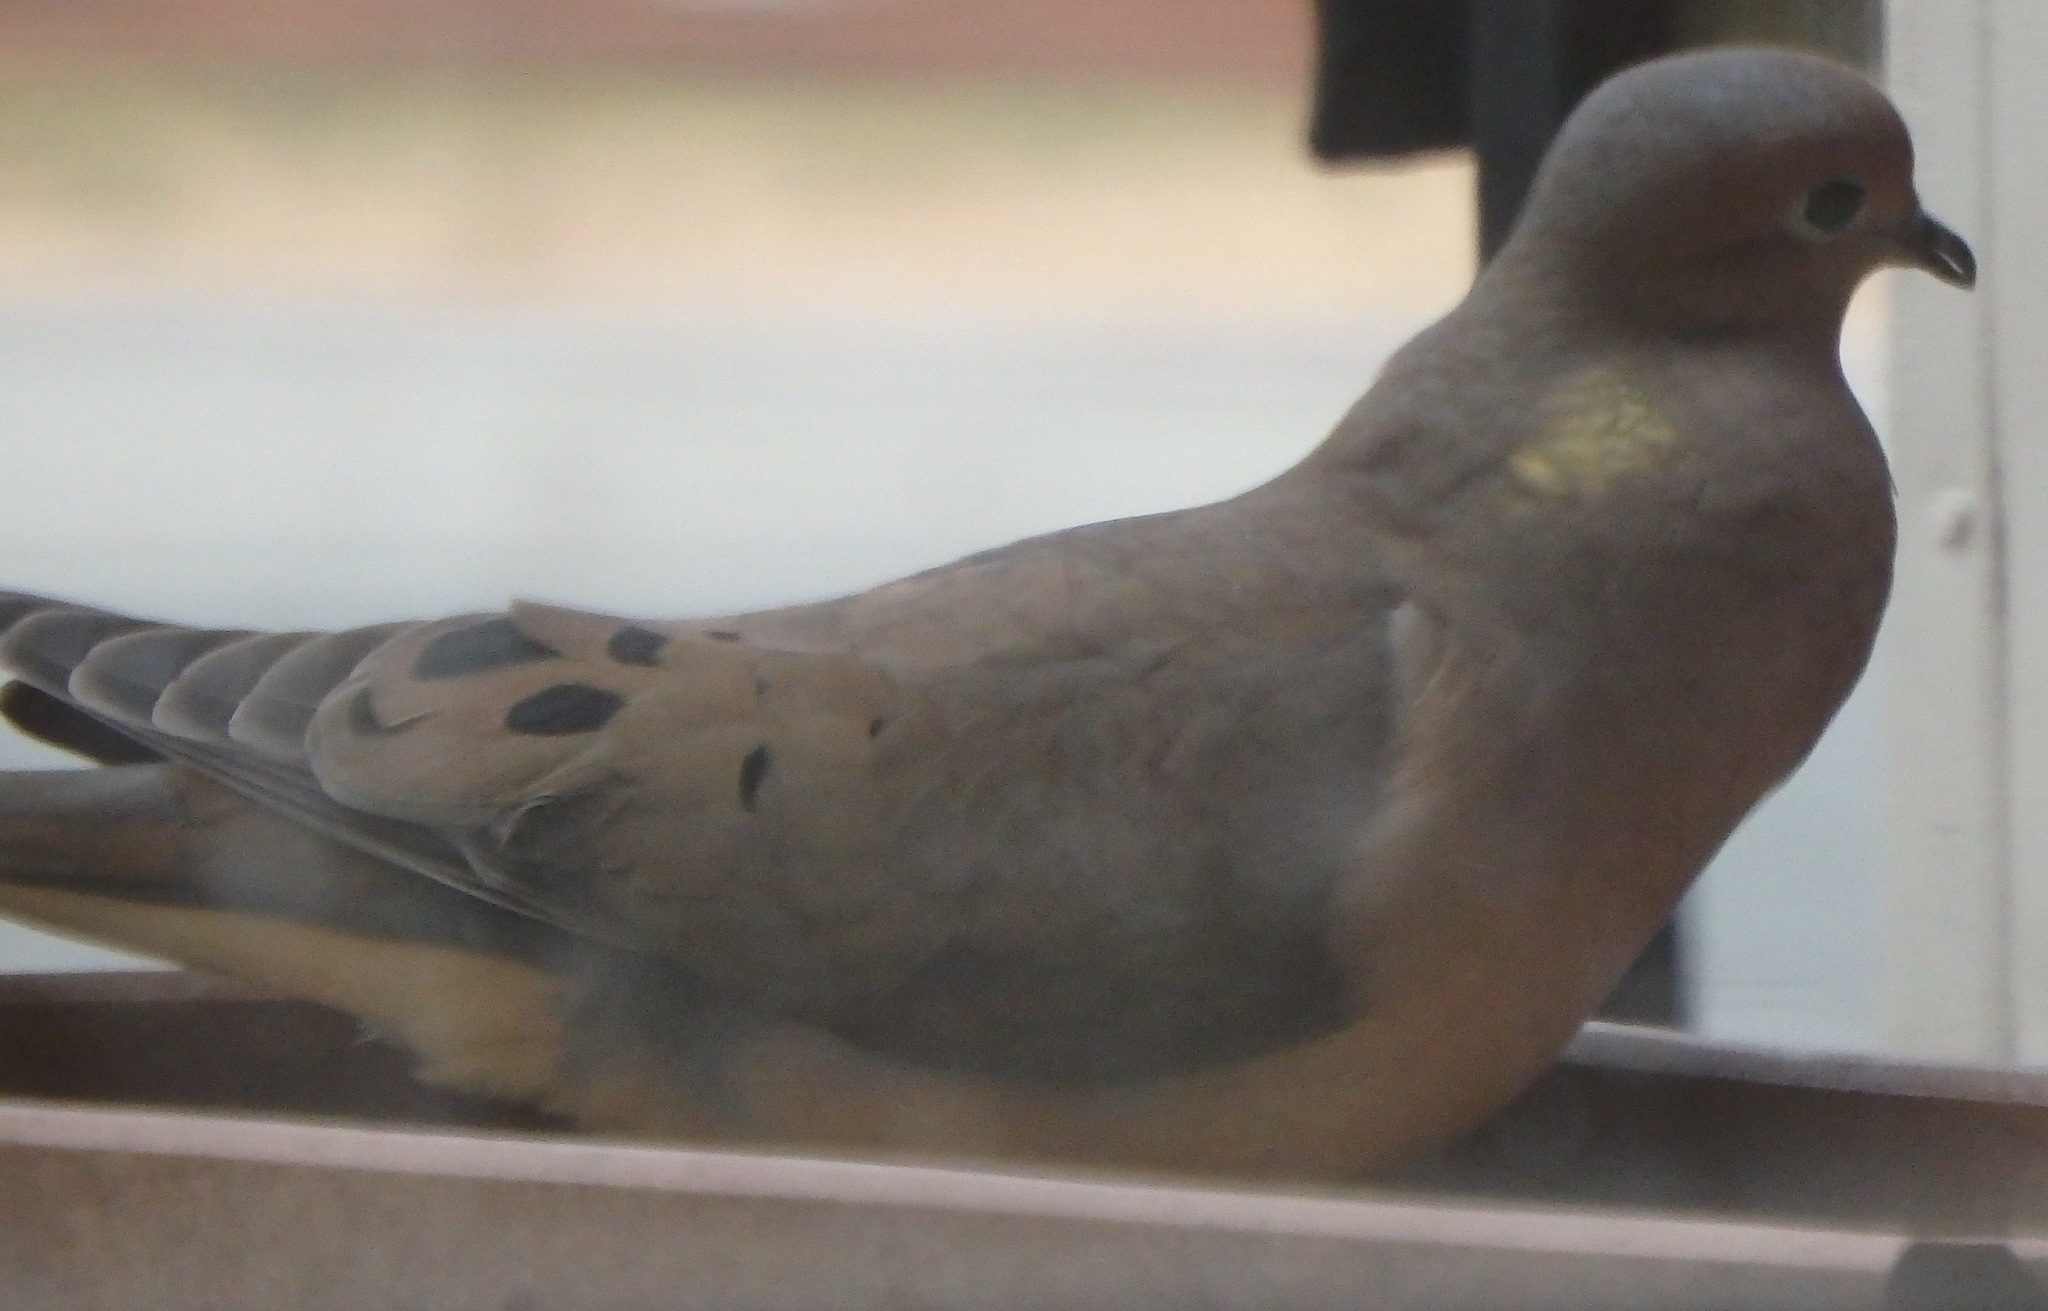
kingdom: Animalia
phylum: Chordata
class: Aves
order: Columbiformes
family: Columbidae
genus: Zenaida
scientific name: Zenaida macroura
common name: Mourning dove
